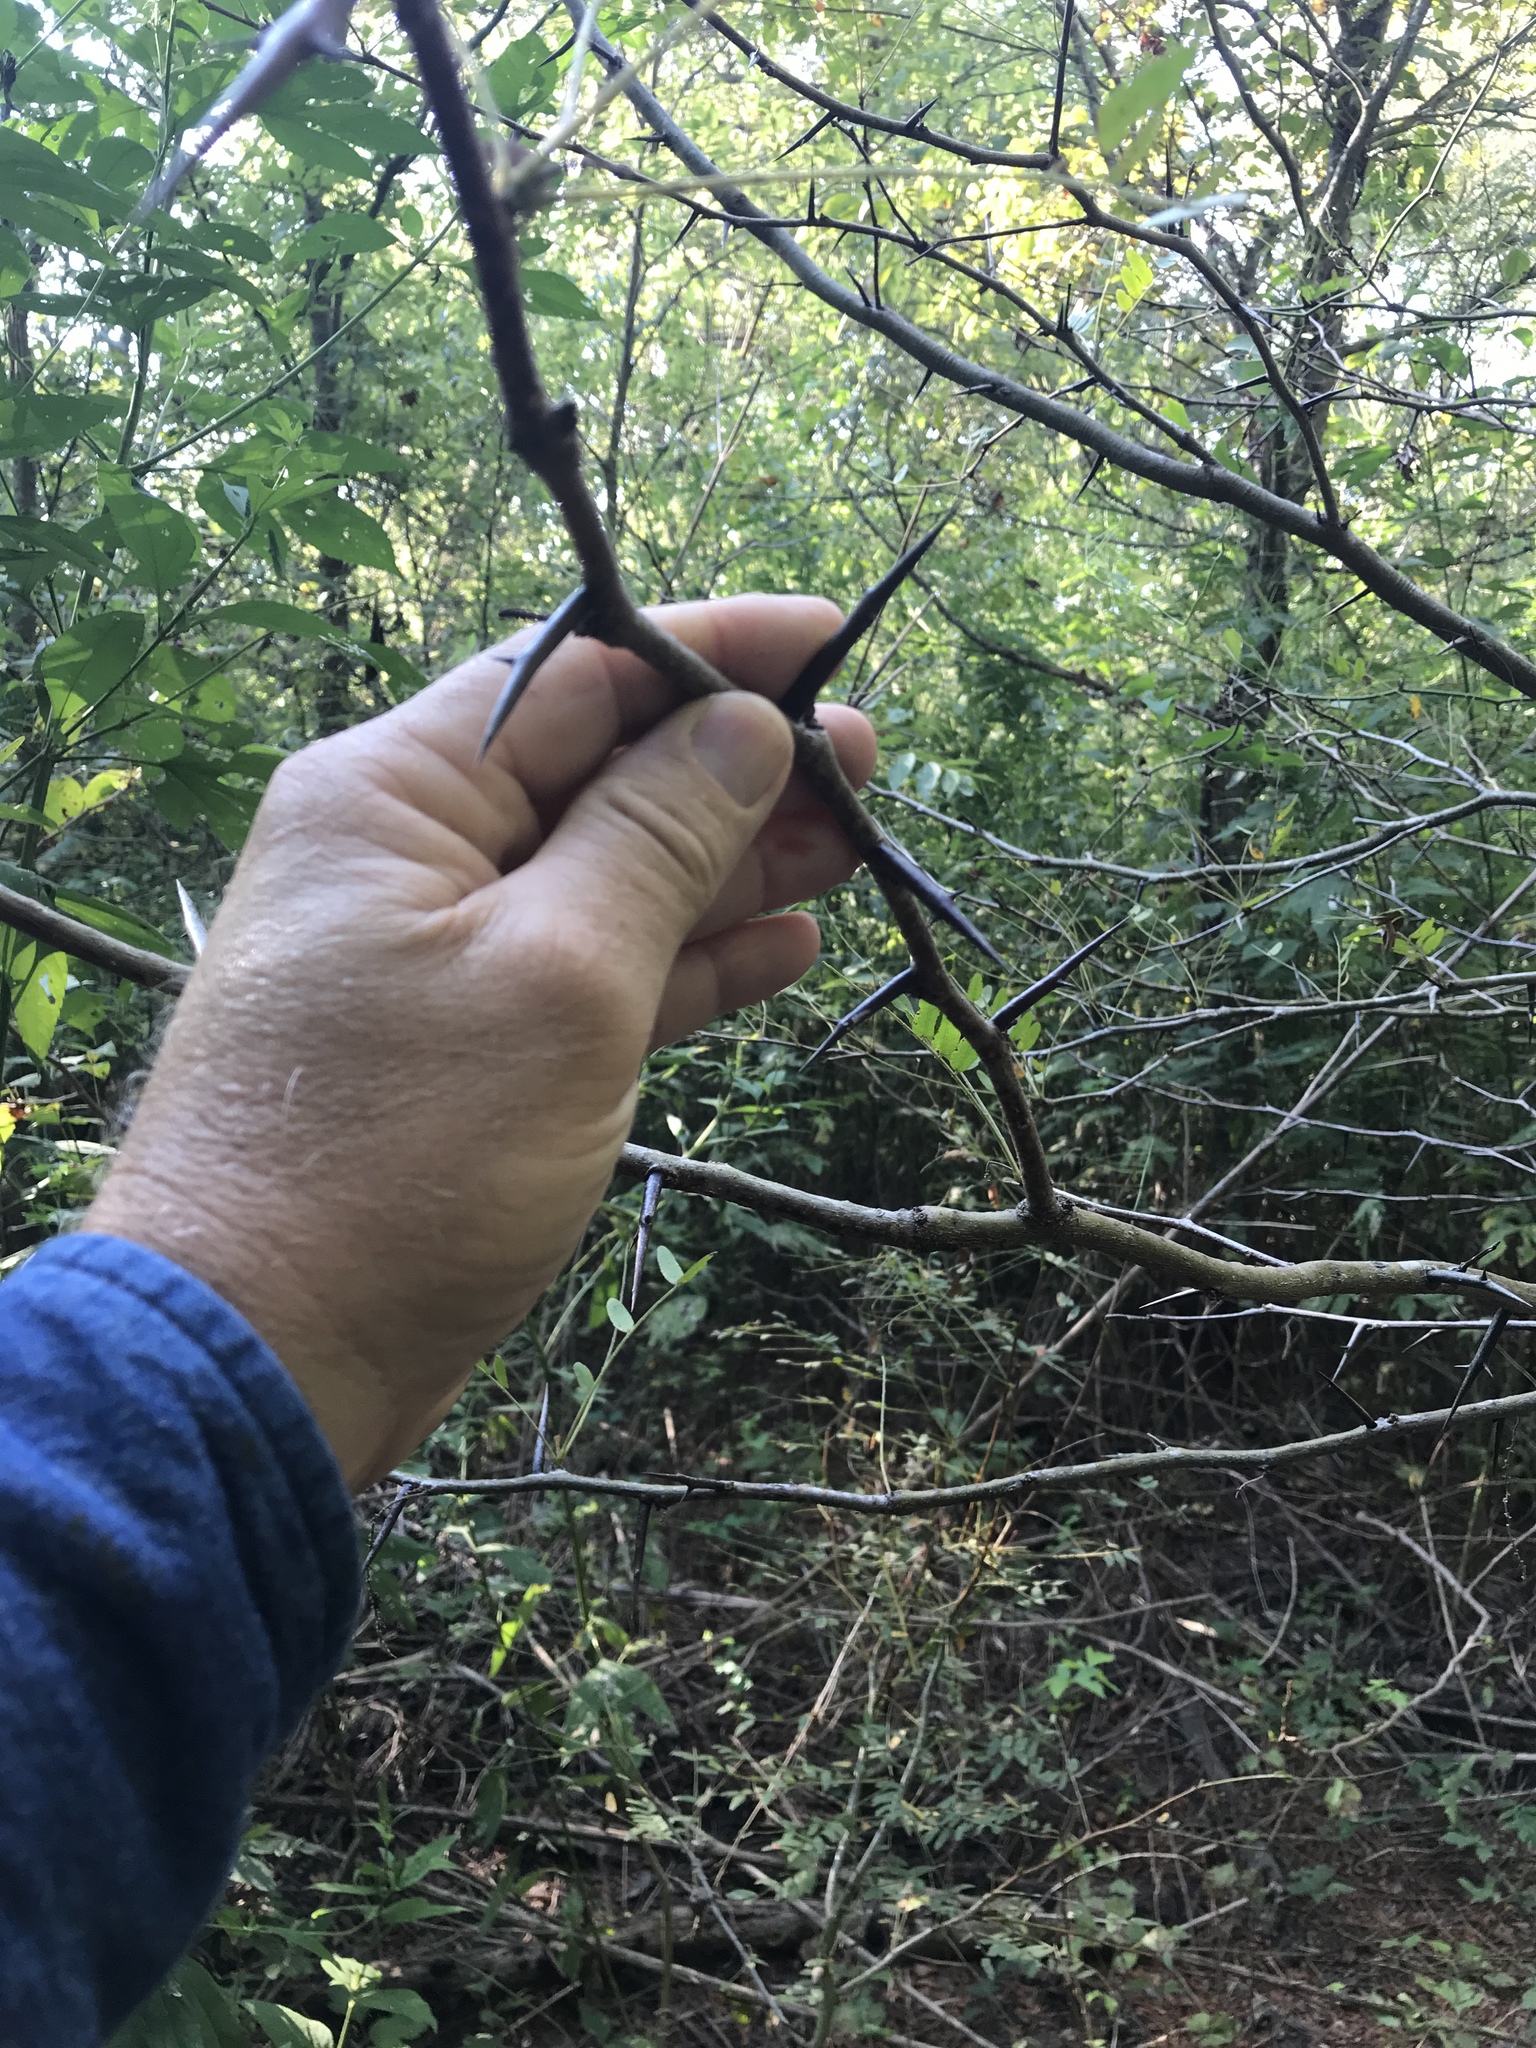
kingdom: Plantae
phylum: Tracheophyta
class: Magnoliopsida
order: Fabales
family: Fabaceae
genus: Gleditsia
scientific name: Gleditsia triacanthos
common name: Common honeylocust
